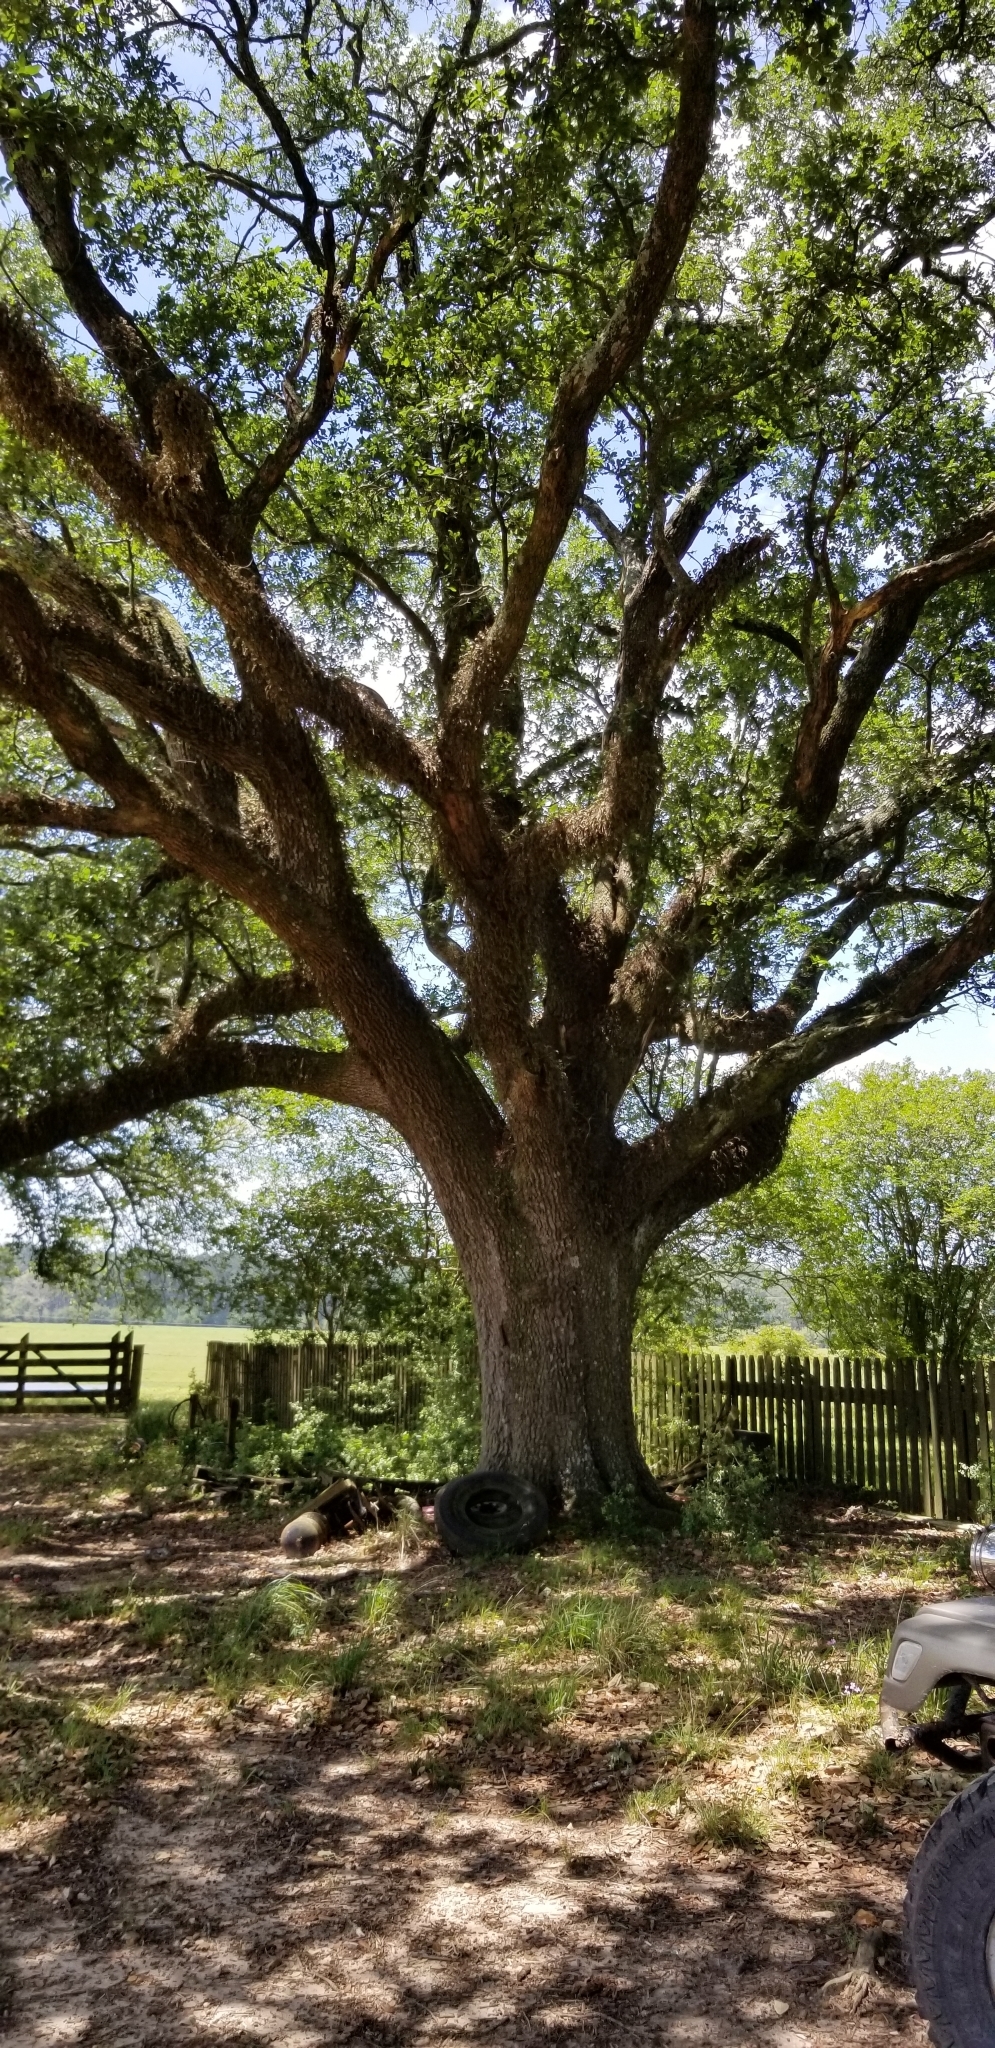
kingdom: Plantae
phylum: Tracheophyta
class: Magnoliopsida
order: Fagales
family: Fagaceae
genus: Quercus
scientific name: Quercus virginiana
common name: Southern live oak
